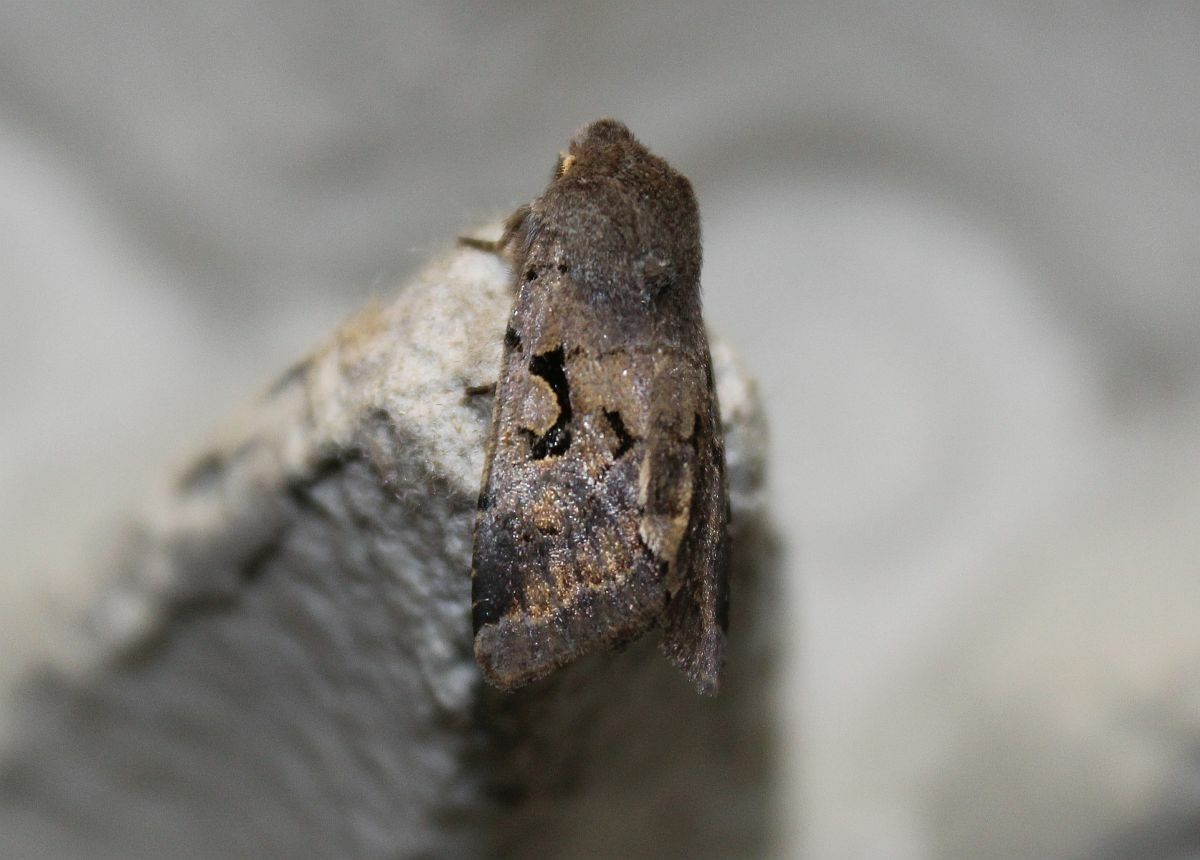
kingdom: Animalia
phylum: Arthropoda
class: Insecta
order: Lepidoptera
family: Noctuidae
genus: Orthosia
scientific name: Orthosia gothica
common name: Hebrew character
